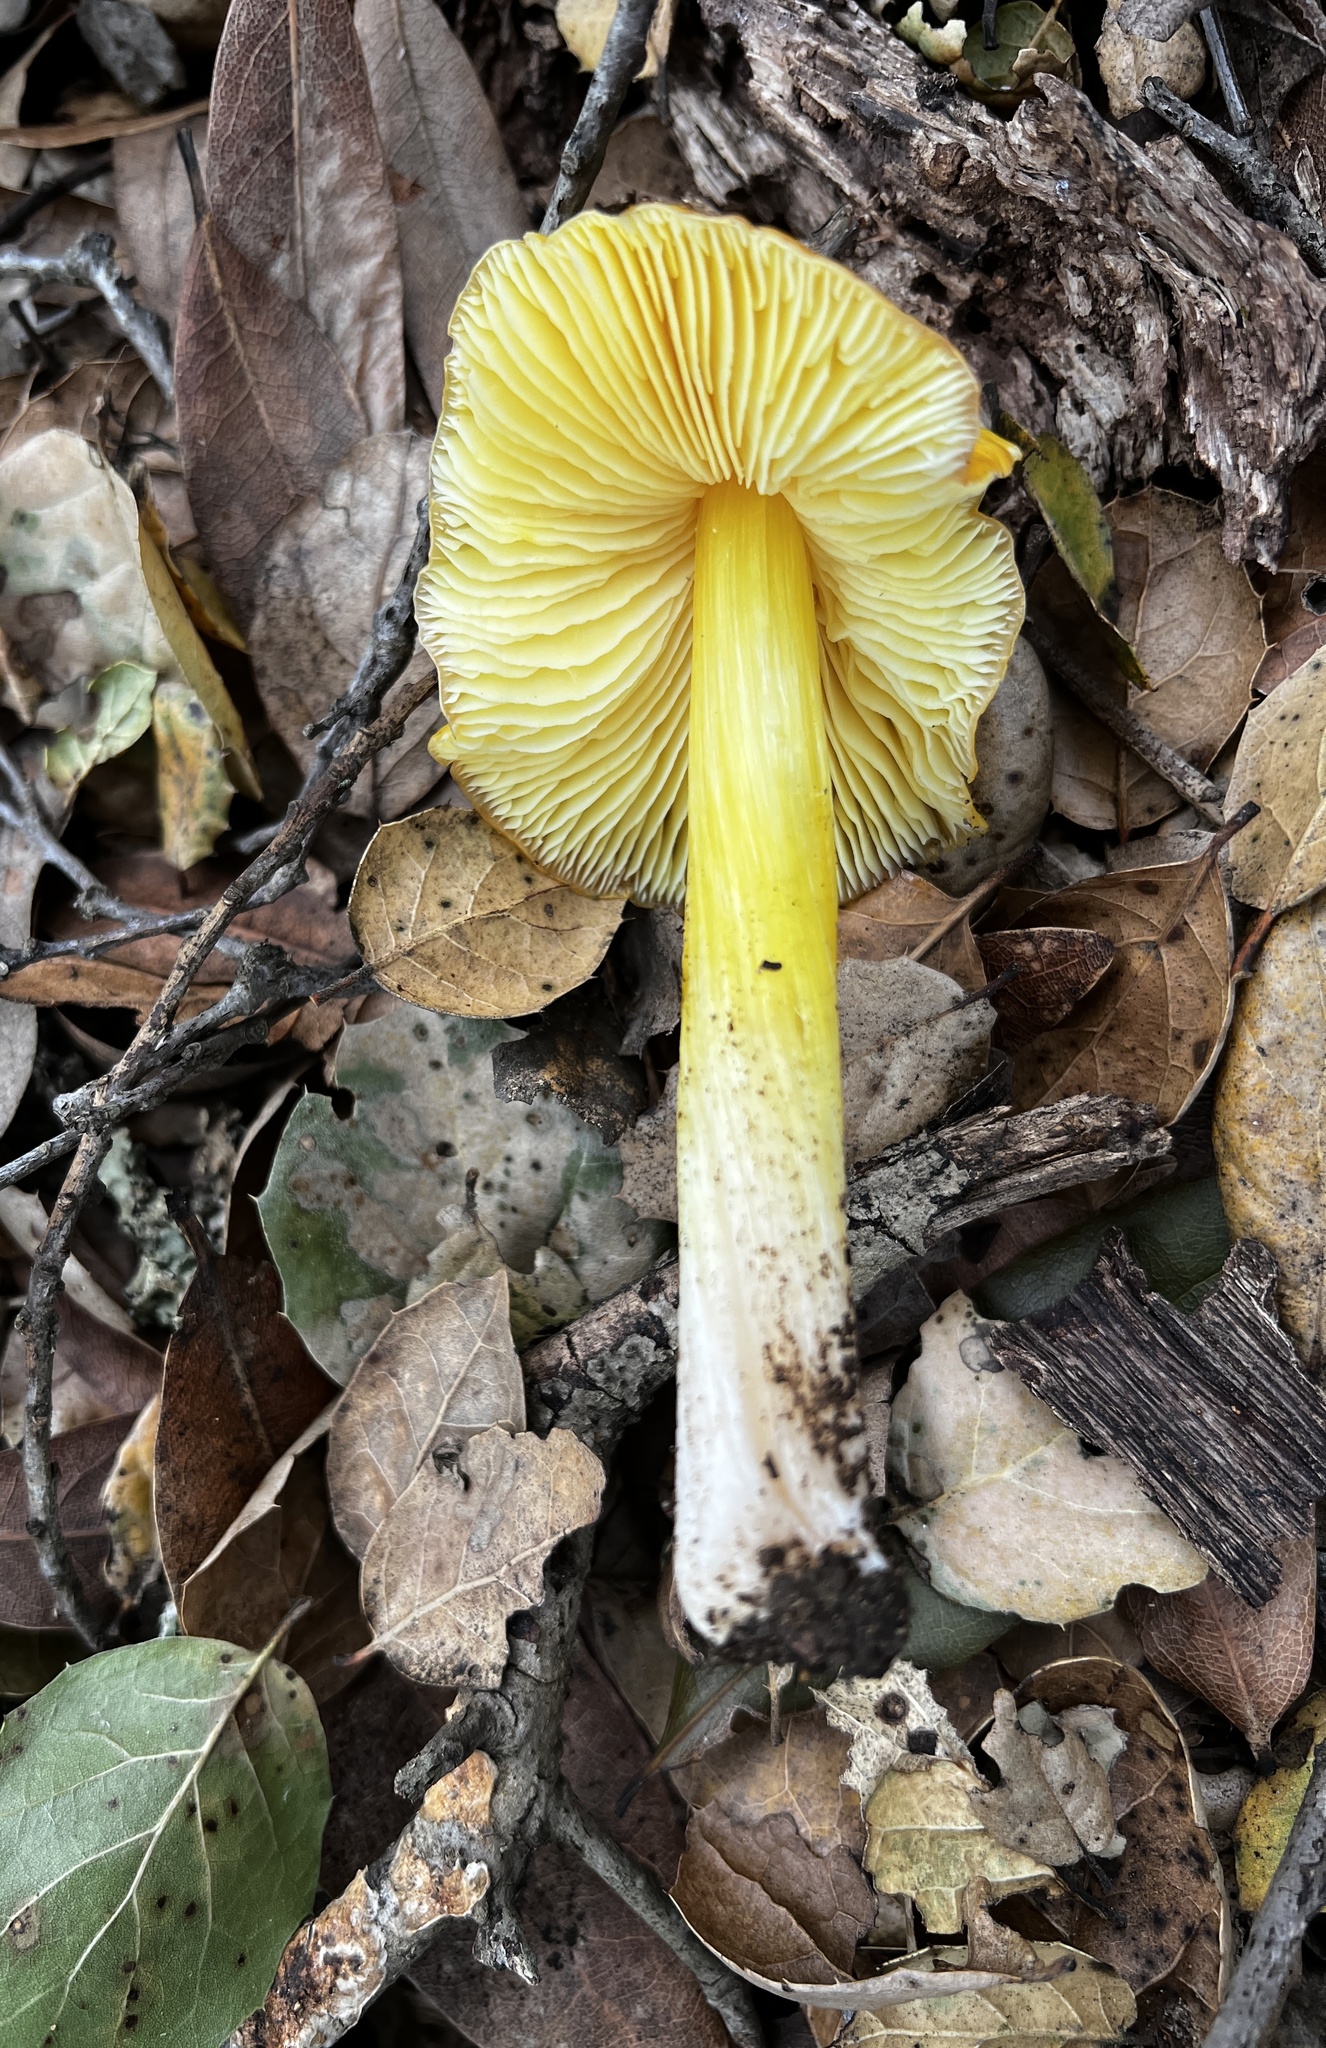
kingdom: Fungi
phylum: Basidiomycota
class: Agaricomycetes
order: Agaricales
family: Hygrophoraceae
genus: Hygrocybe
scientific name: Hygrocybe flavescens
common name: Golden waxy cap
